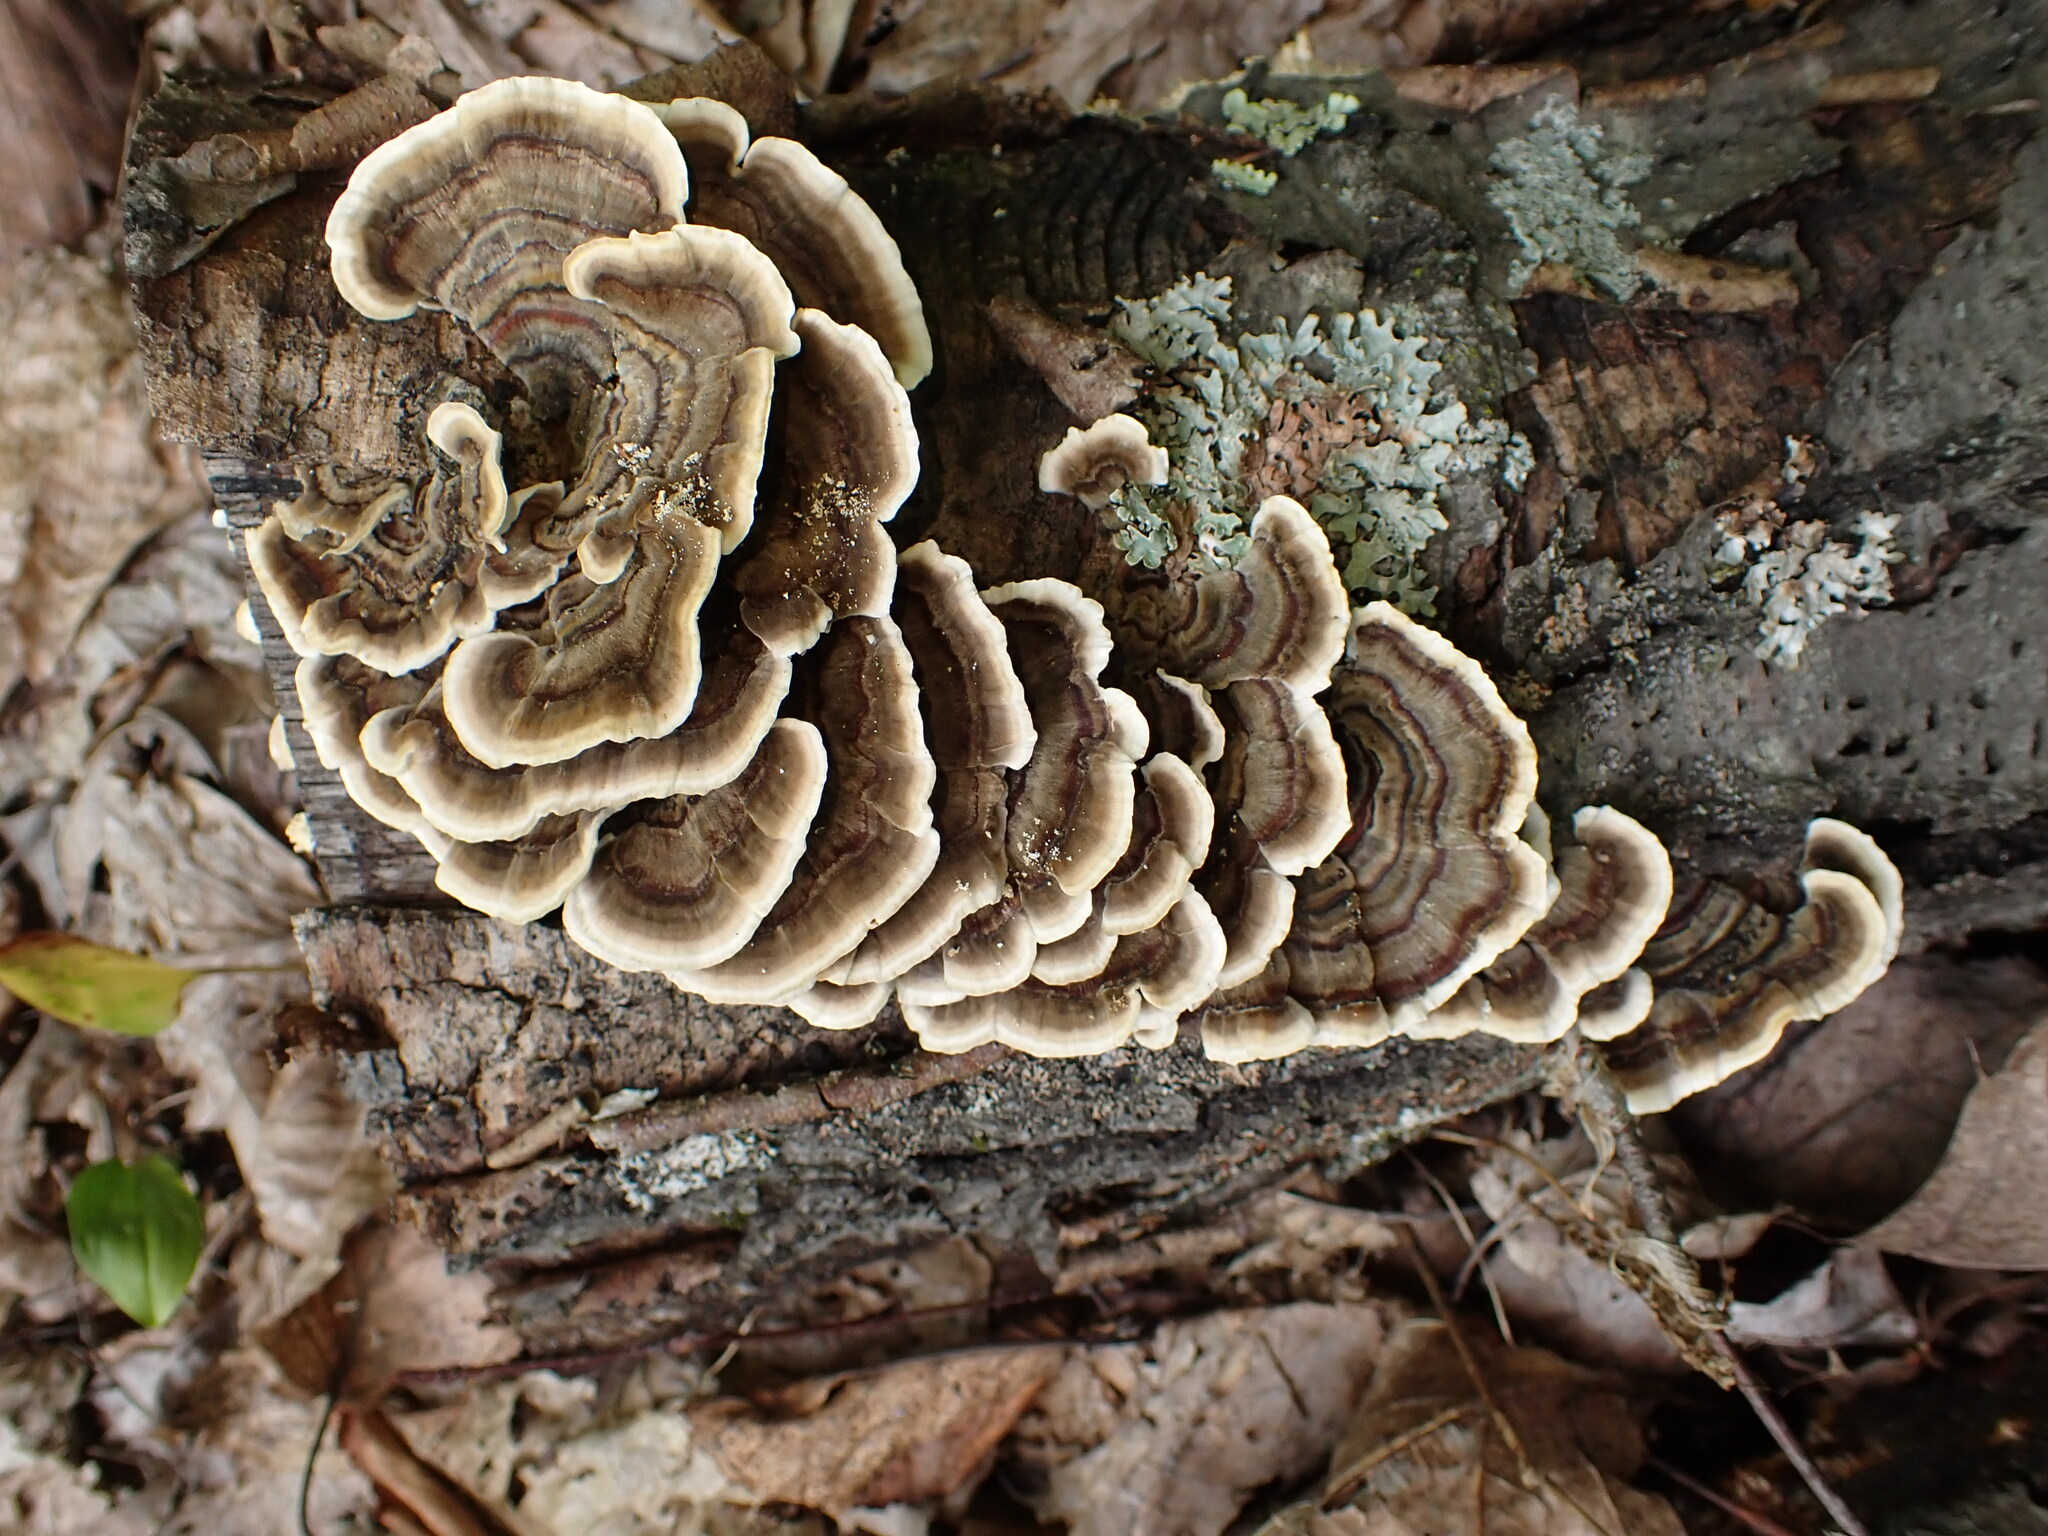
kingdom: Fungi
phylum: Basidiomycota
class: Agaricomycetes
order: Polyporales
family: Polyporaceae
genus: Trametes
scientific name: Trametes versicolor
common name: Turkeytail
